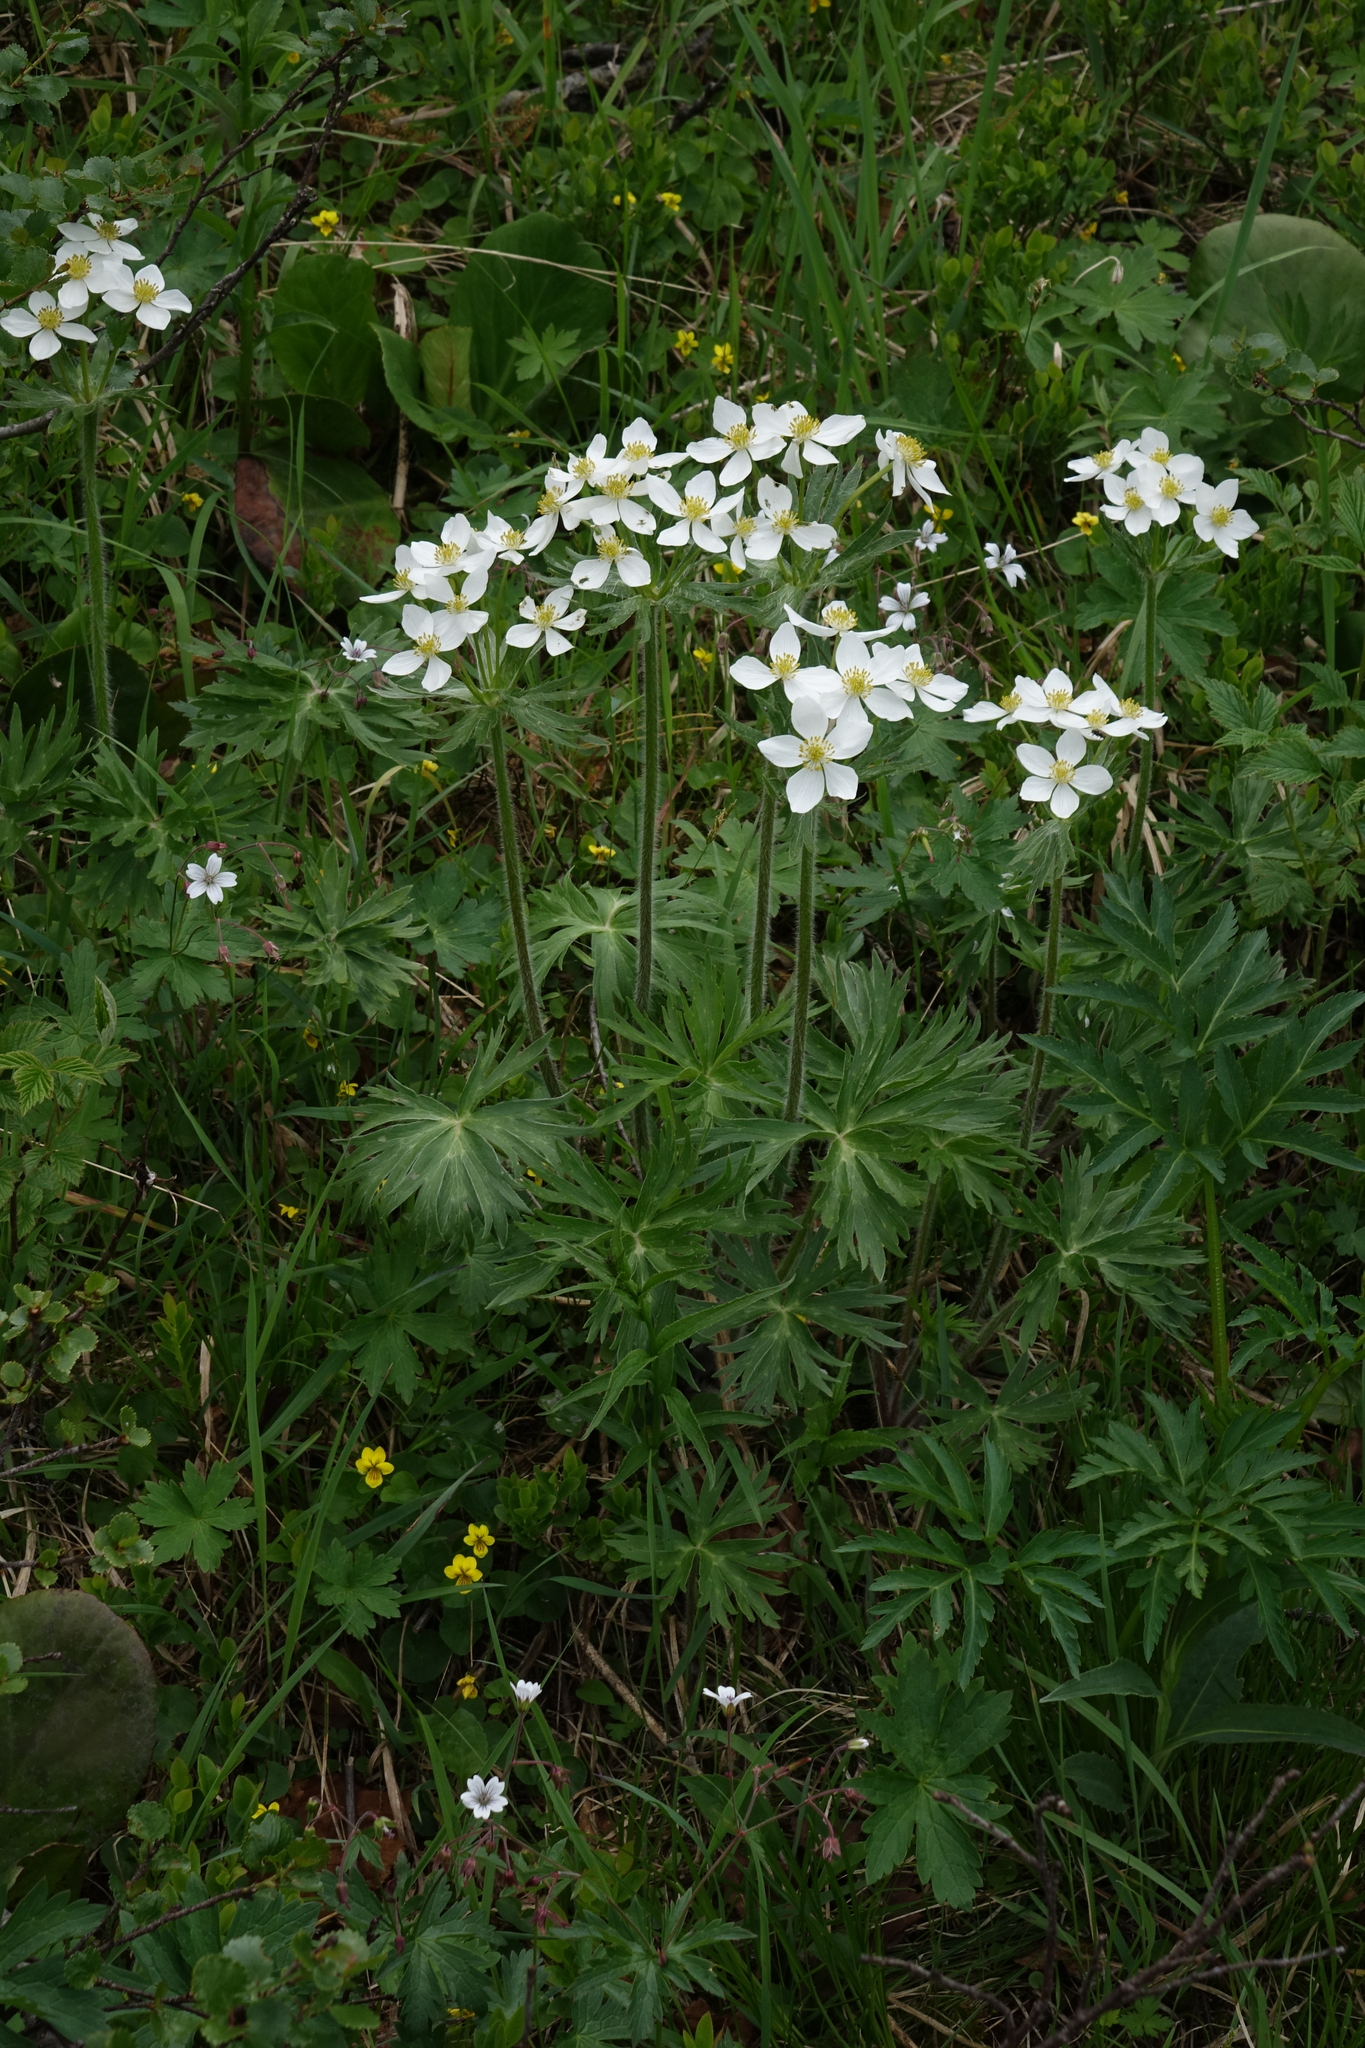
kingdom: Plantae
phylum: Tracheophyta
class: Magnoliopsida
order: Ranunculales
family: Ranunculaceae
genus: Anemonastrum
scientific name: Anemonastrum narcissiflorum
